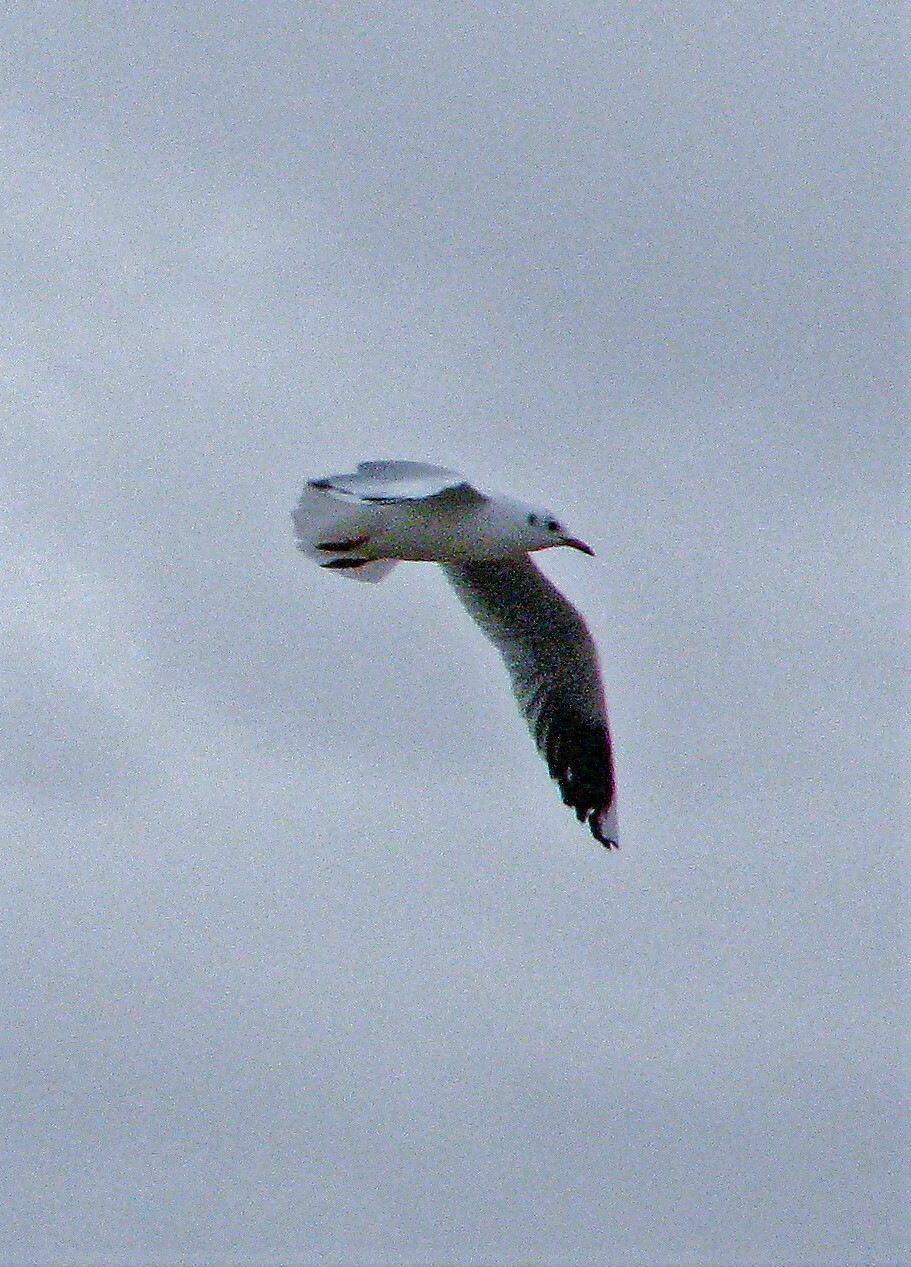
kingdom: Animalia
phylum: Chordata
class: Aves
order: Charadriiformes
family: Laridae
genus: Chroicocephalus
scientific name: Chroicocephalus maculipennis
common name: Brown-hooded gull
